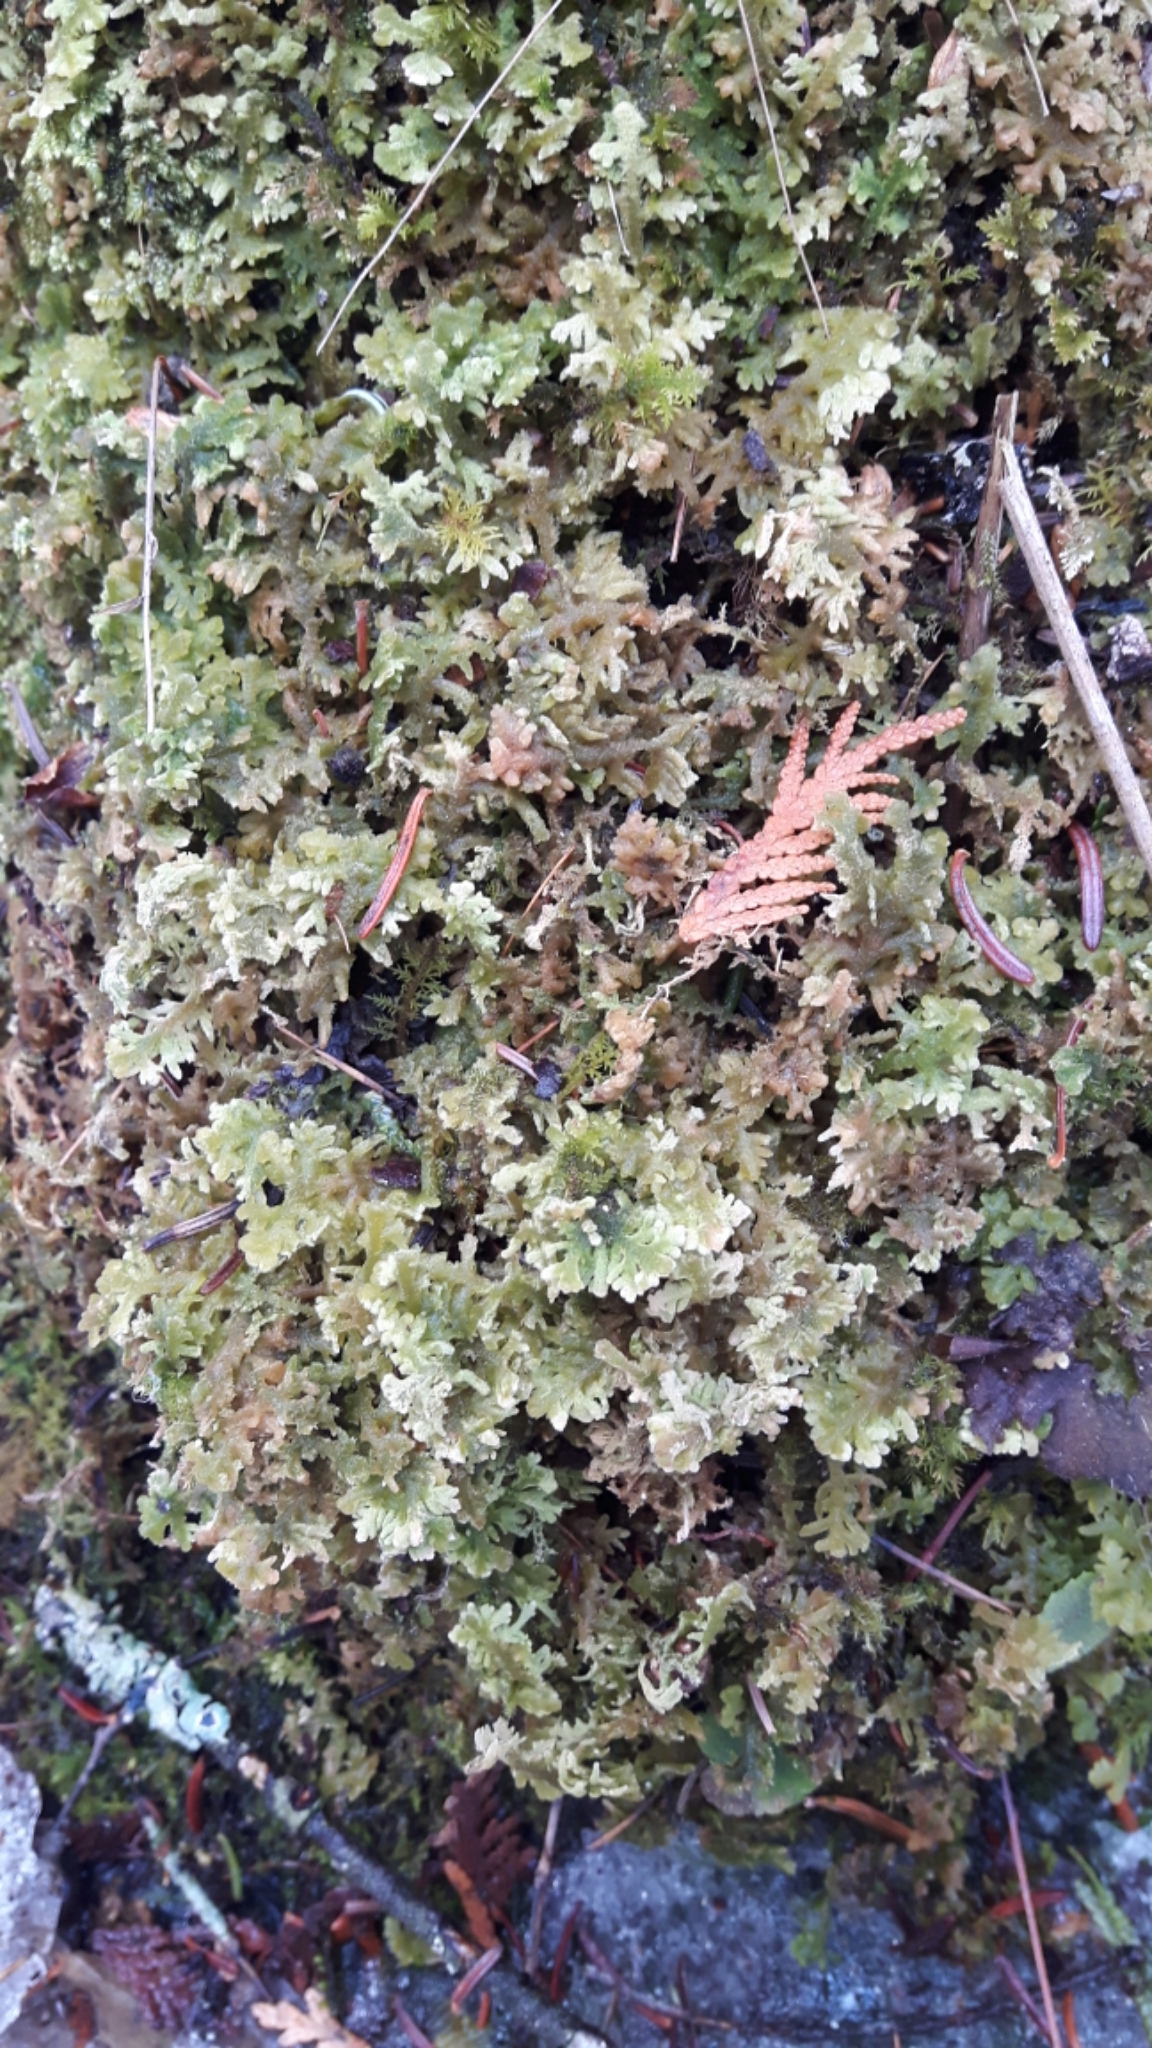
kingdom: Plantae
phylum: Marchantiophyta
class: Jungermanniopsida
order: Jungermanniales
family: Trichocoleaceae
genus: Trichocolea
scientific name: Trichocolea tomentella
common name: Woolly liverwort
